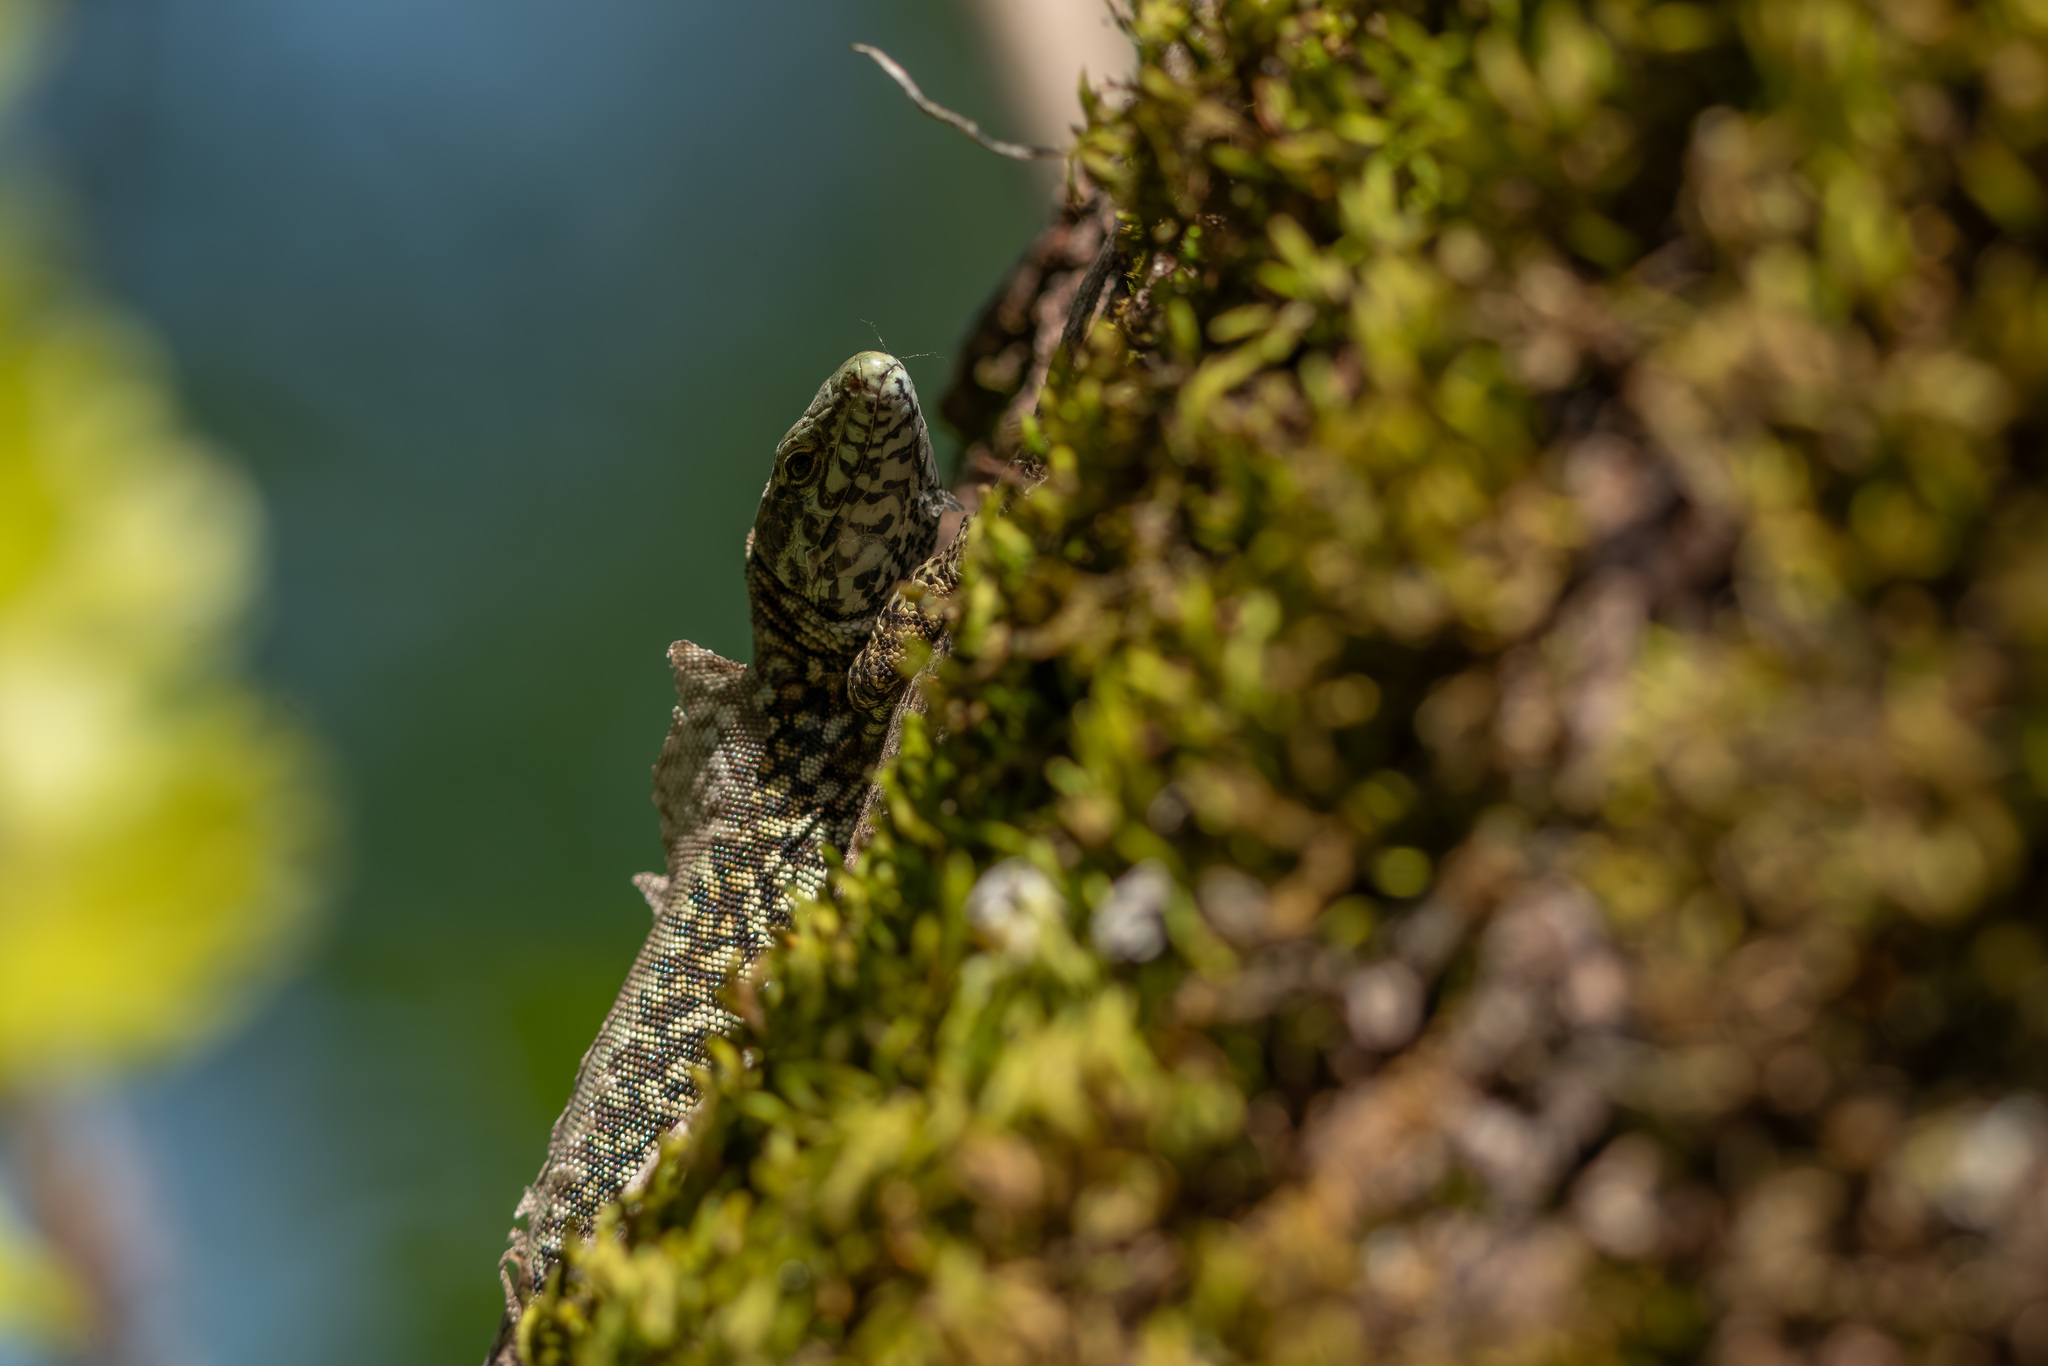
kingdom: Animalia
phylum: Chordata
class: Squamata
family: Lacertidae
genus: Podarcis
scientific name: Podarcis muralis
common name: Common wall lizard
